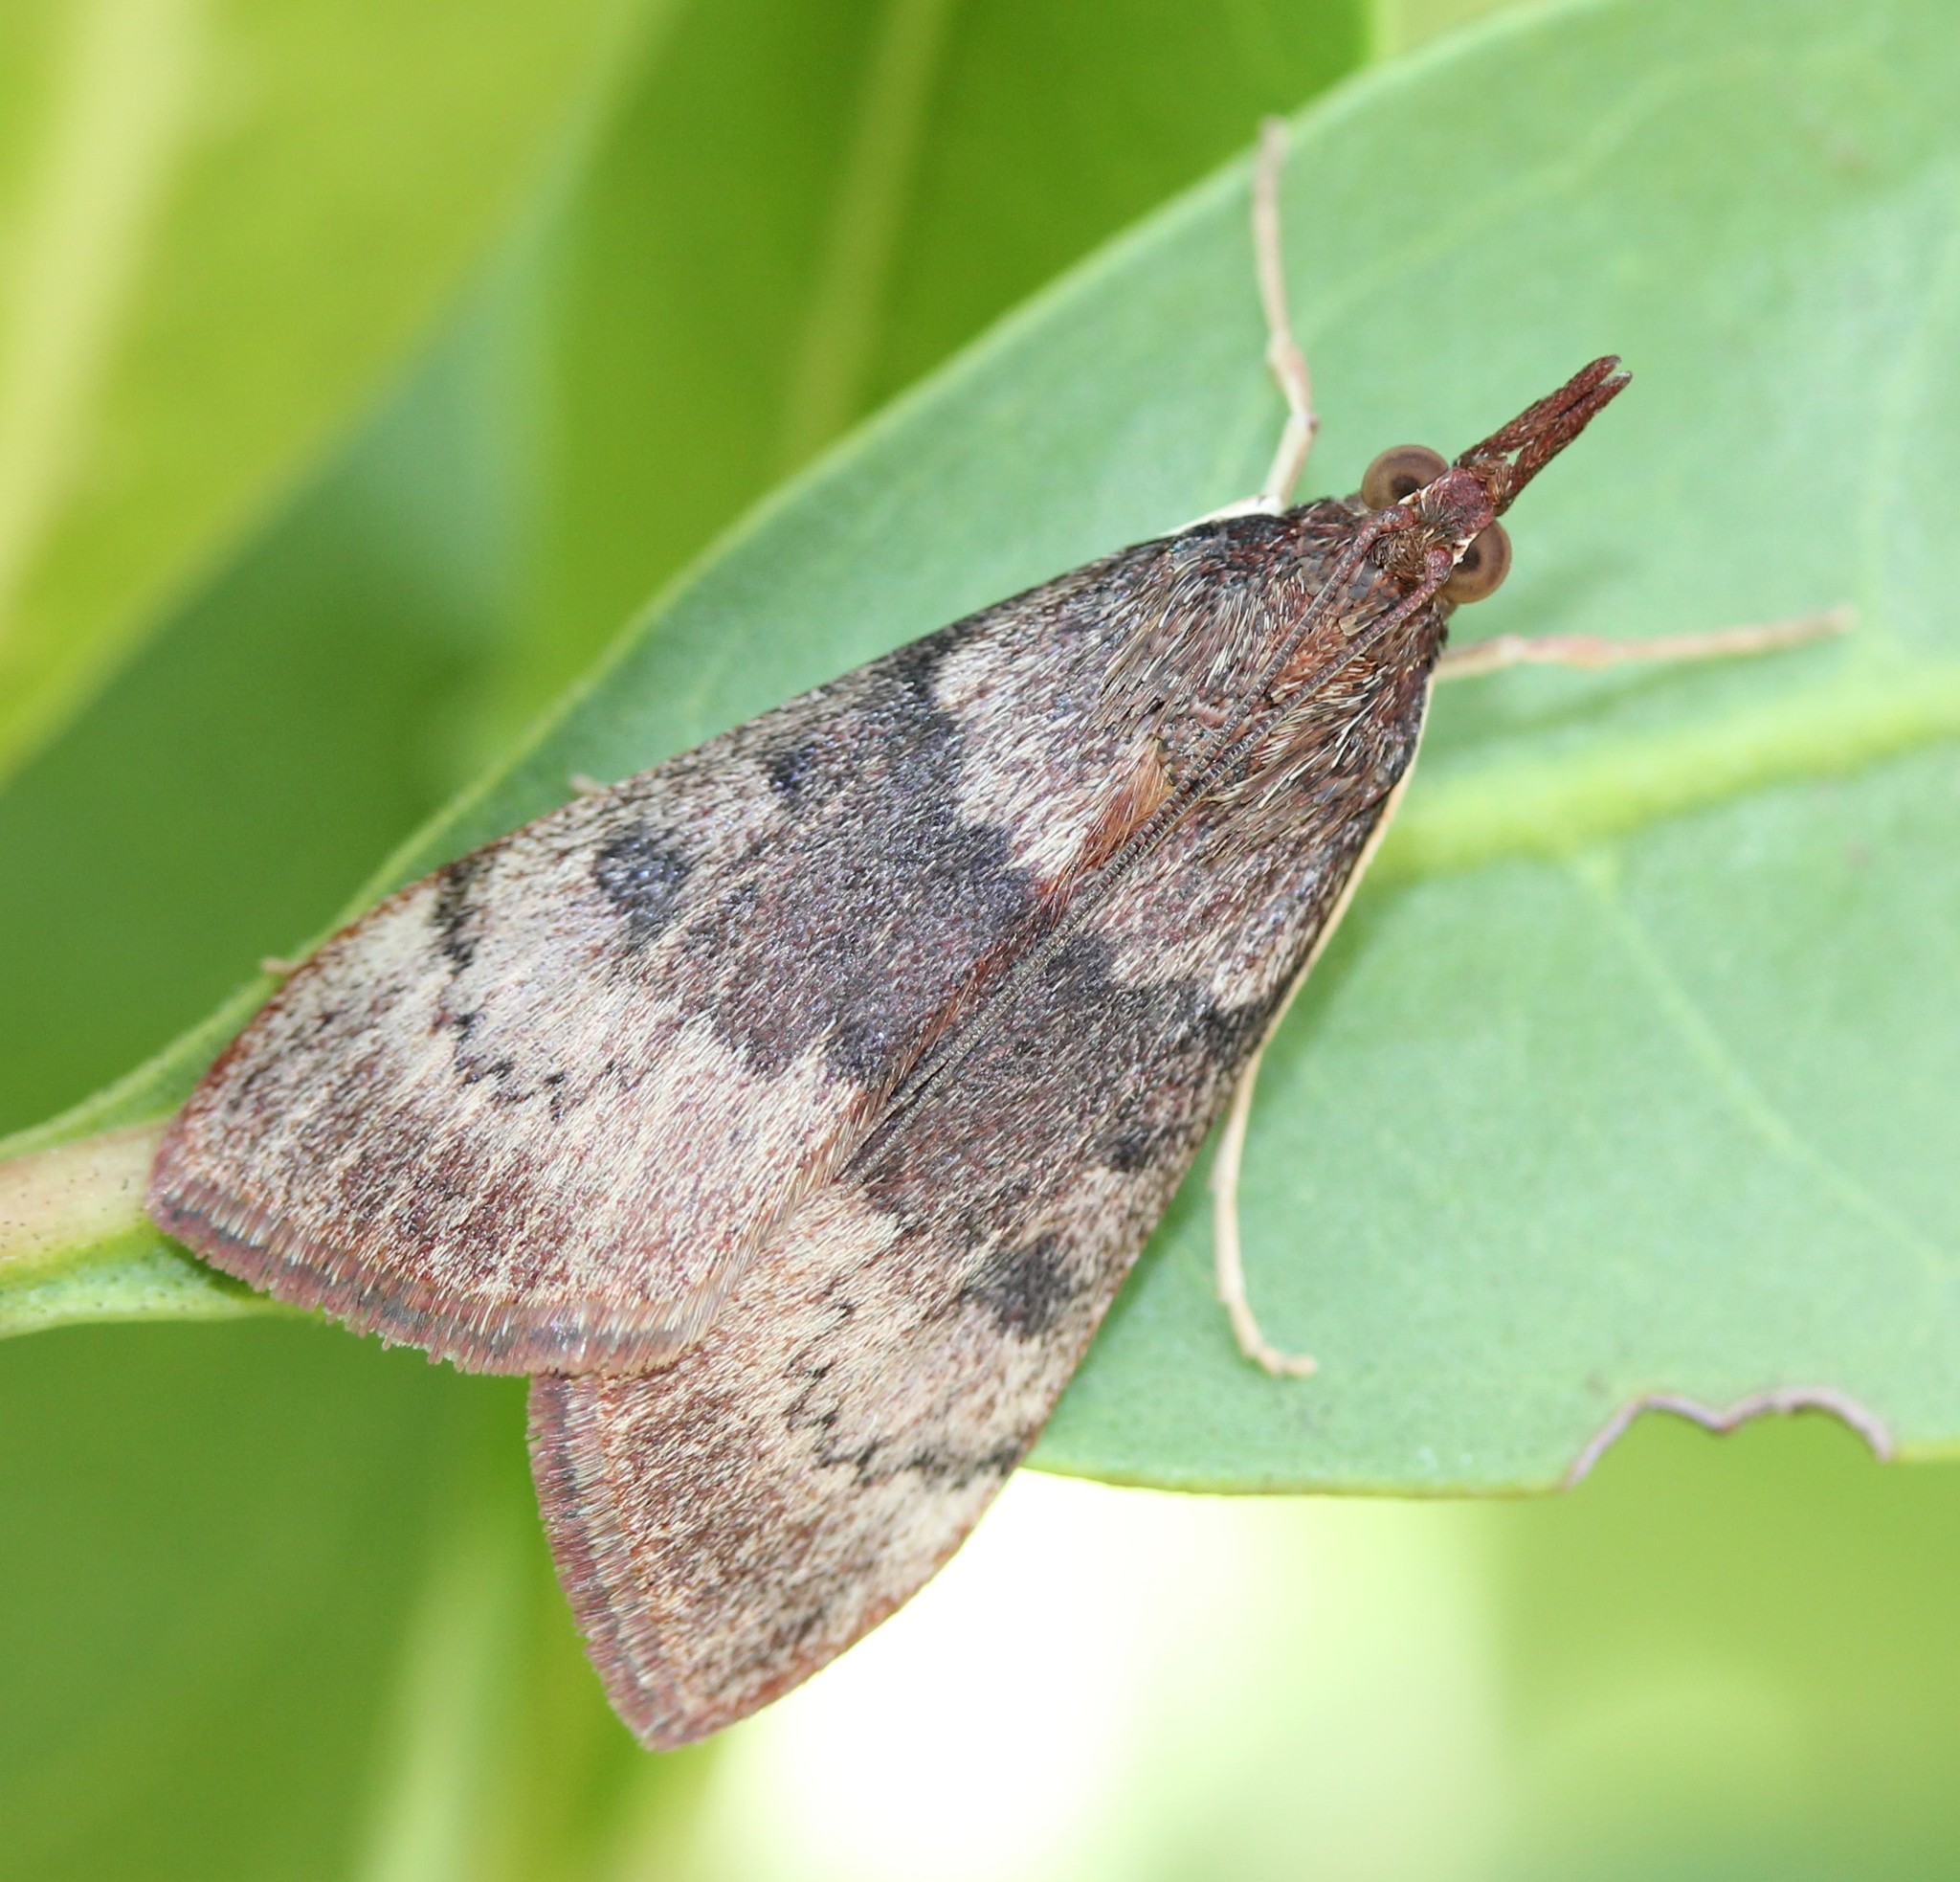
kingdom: Animalia
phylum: Arthropoda
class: Insecta
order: Lepidoptera
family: Crambidae
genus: Uresiphita
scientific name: Uresiphita reversalis
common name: Genista broom moth
